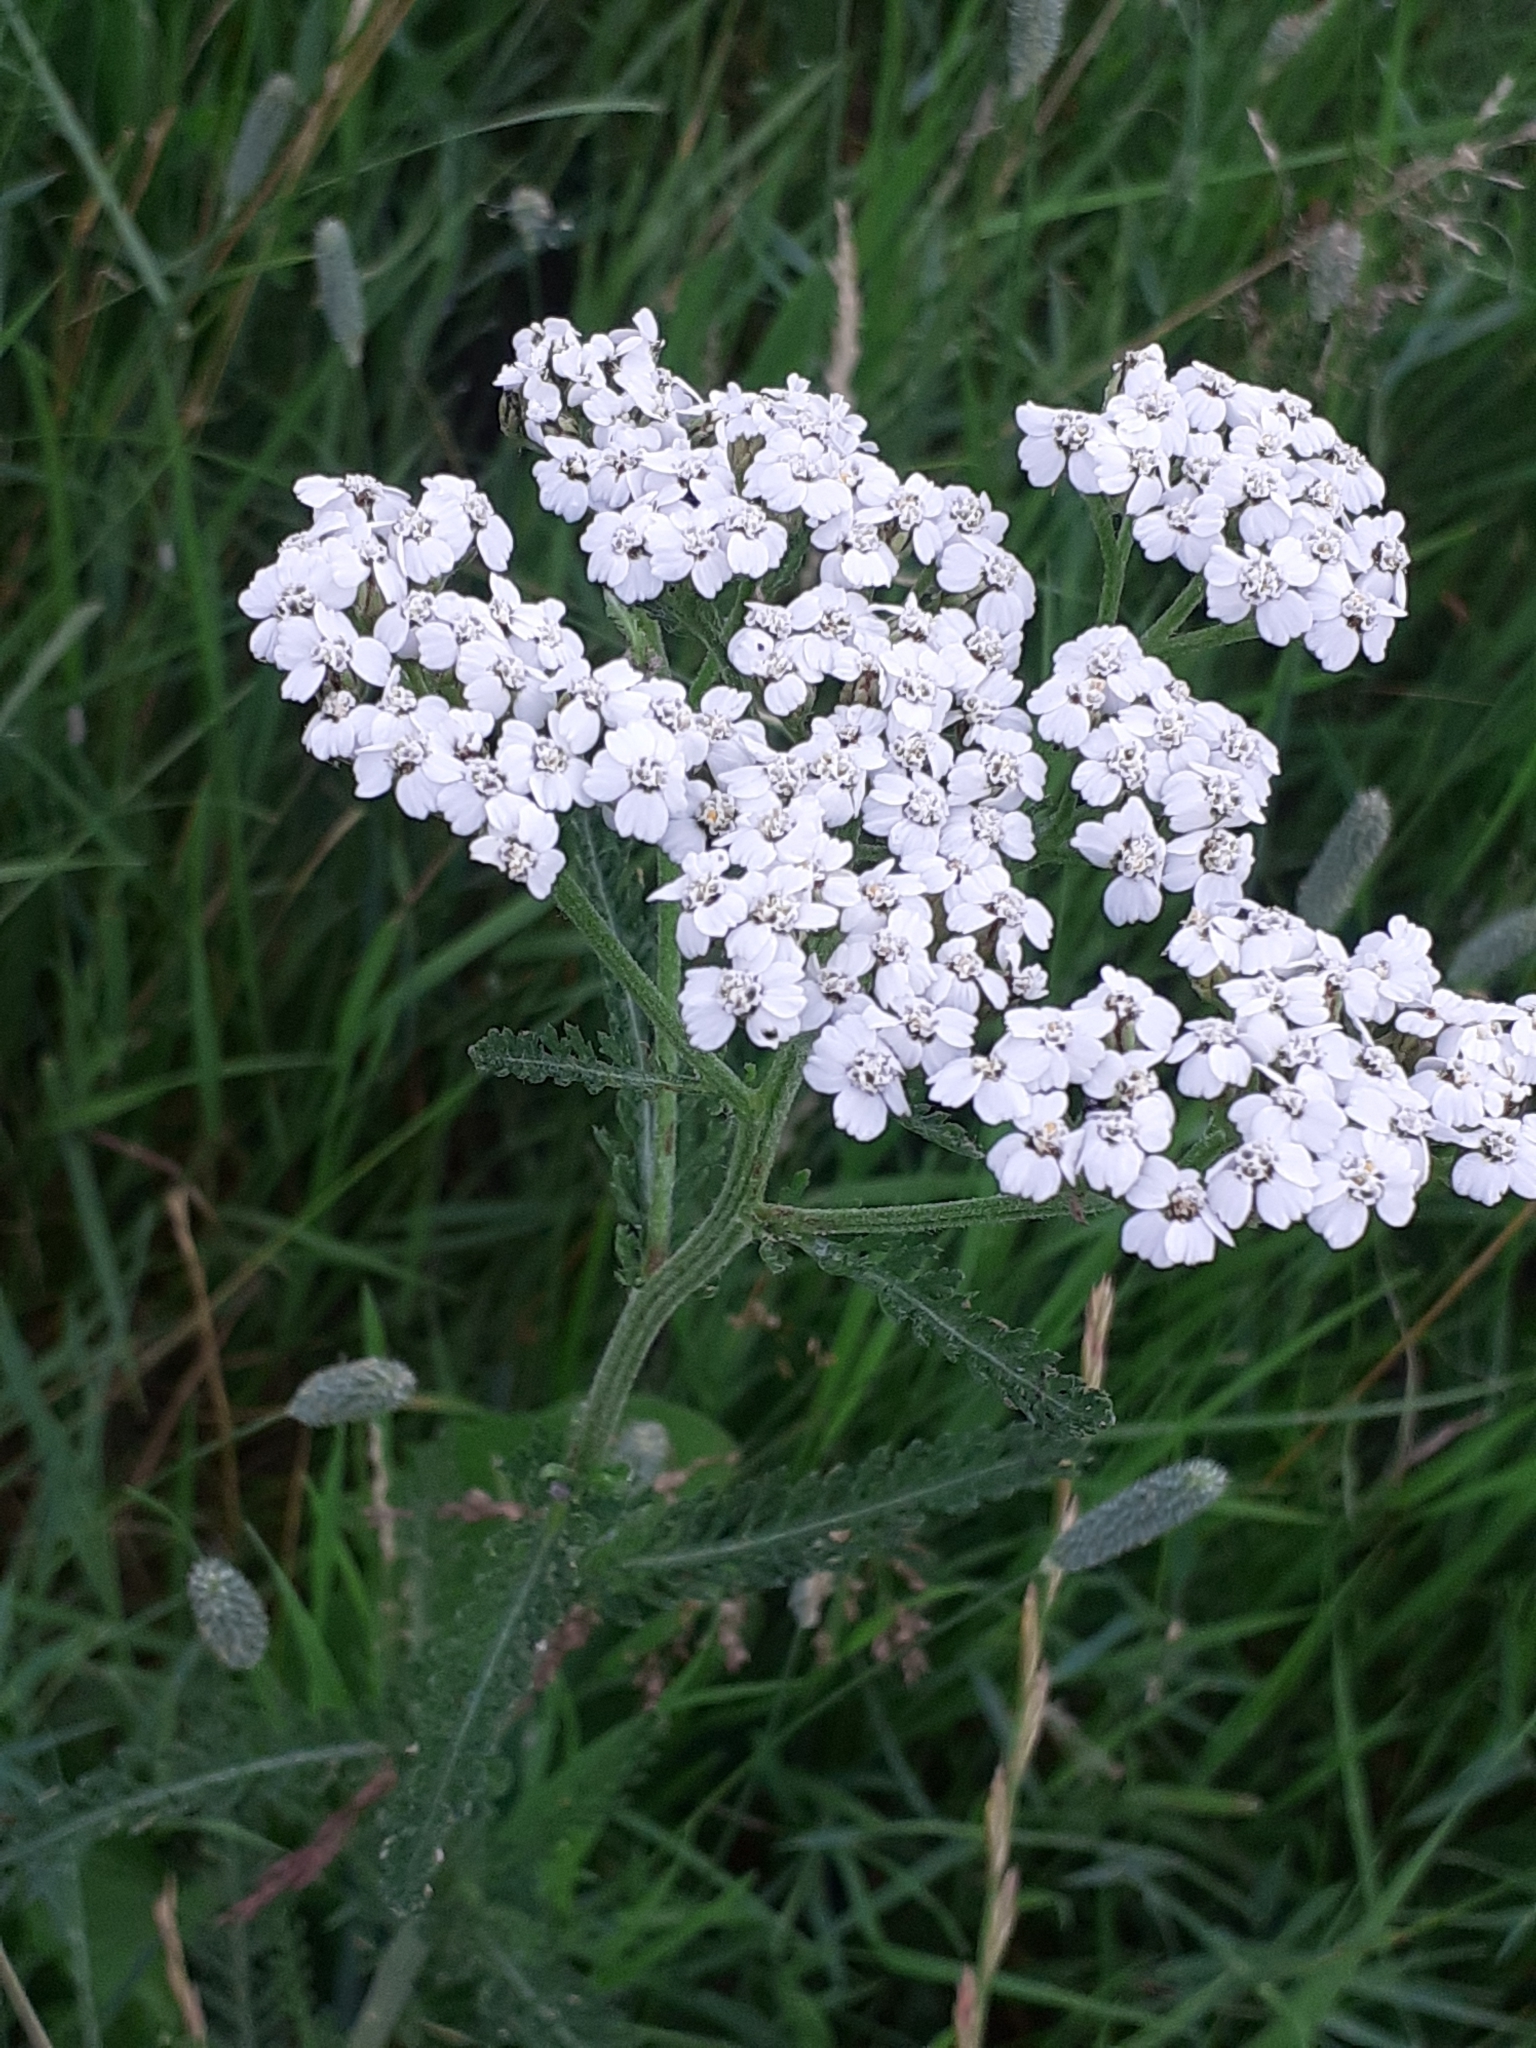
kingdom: Plantae
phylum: Tracheophyta
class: Magnoliopsida
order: Asterales
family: Asteraceae
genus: Achillea
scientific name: Achillea millefolium
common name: Yarrow
